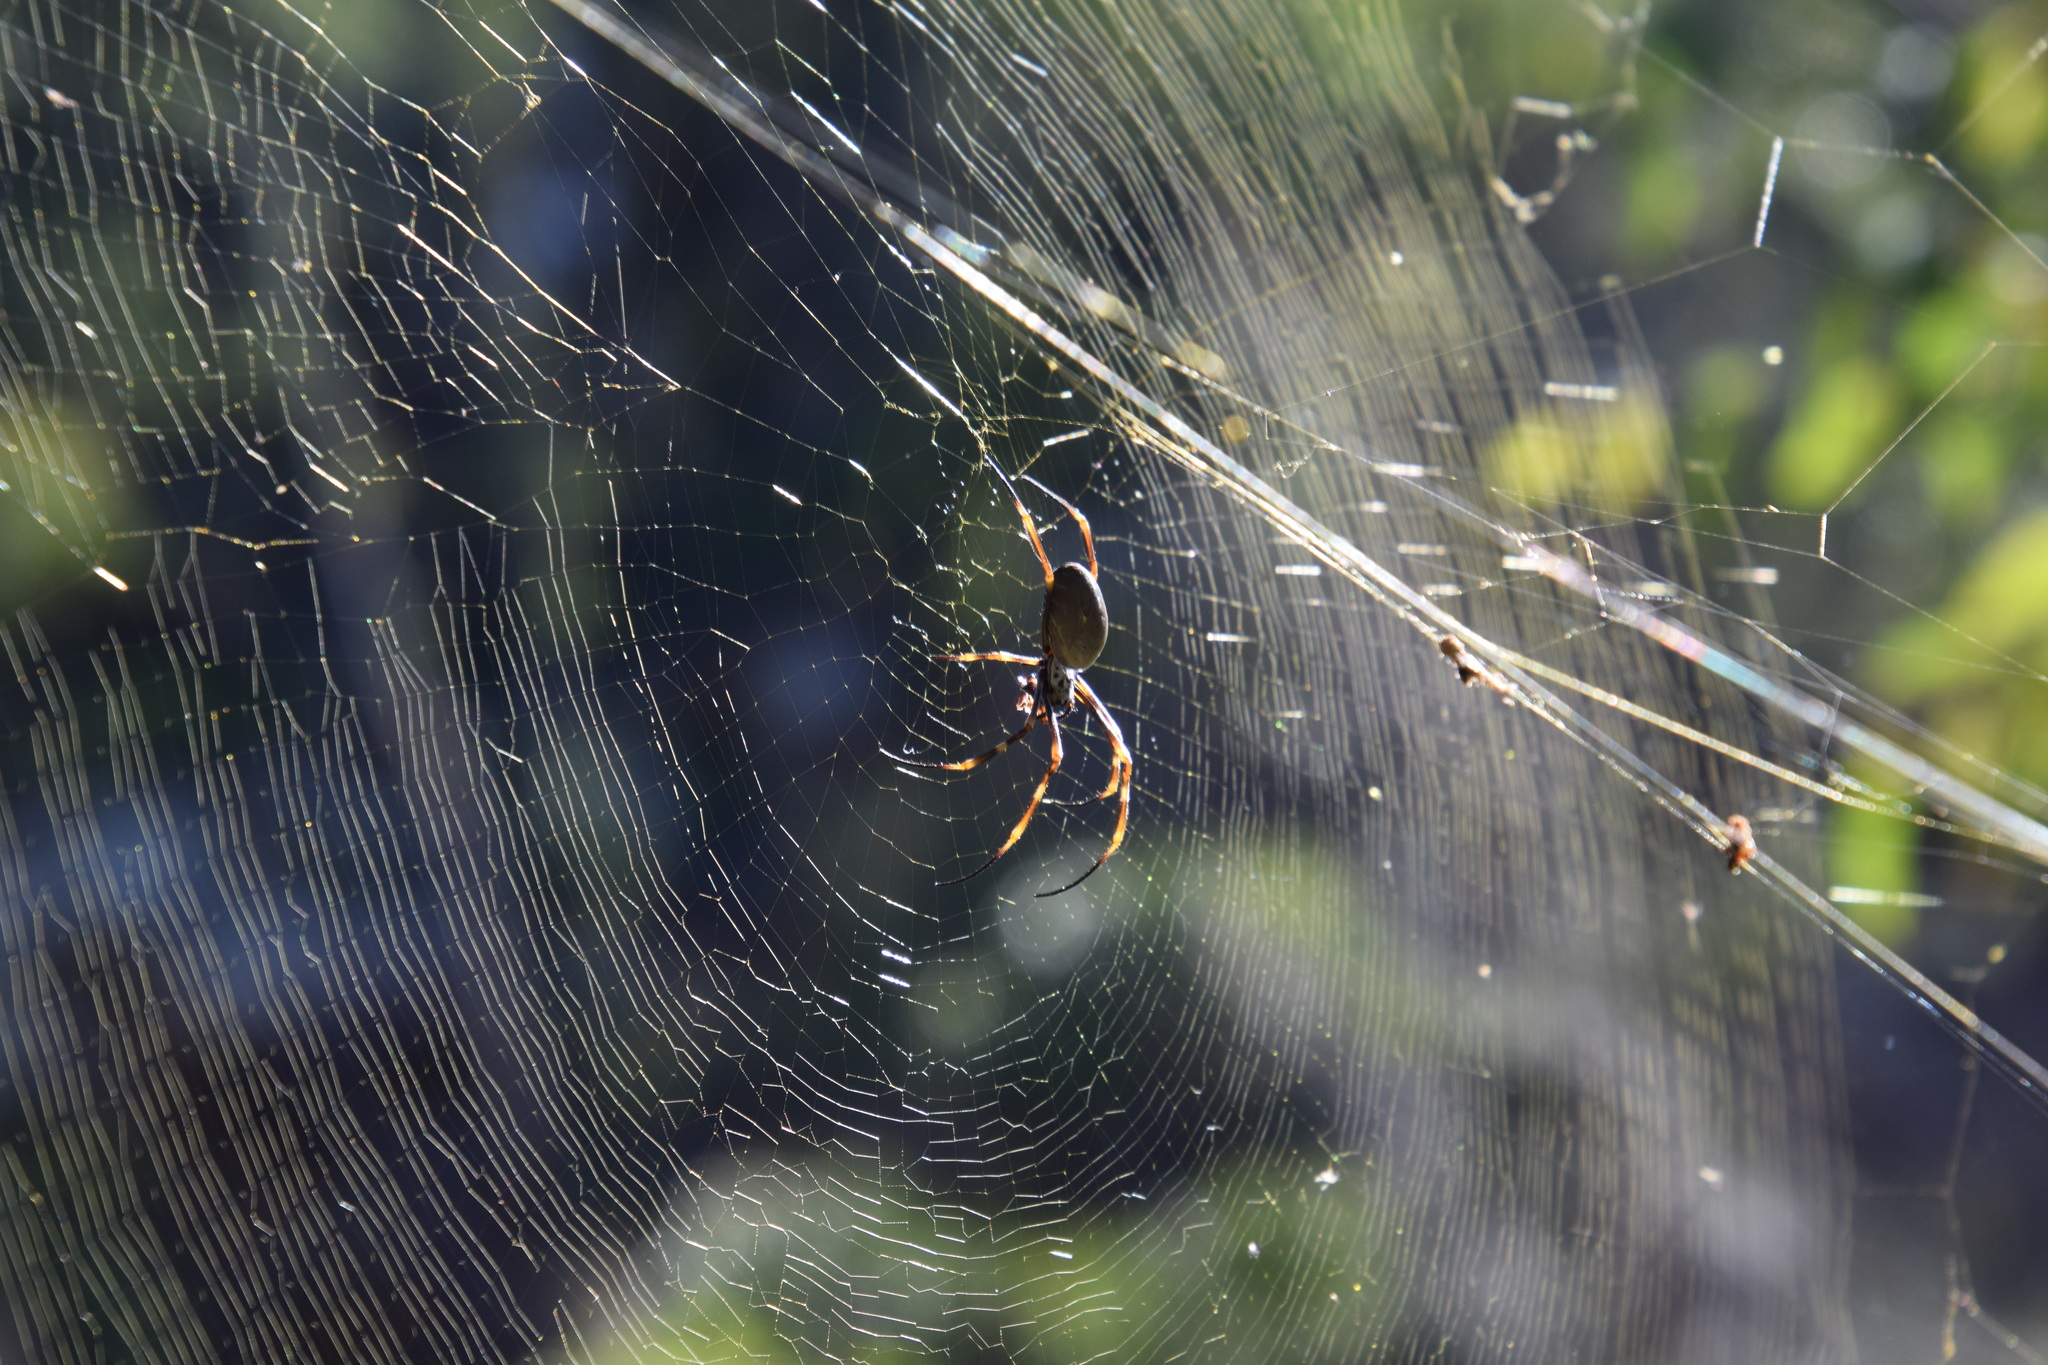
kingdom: Animalia
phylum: Arthropoda
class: Arachnida
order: Araneae
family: Araneidae
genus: Trichonephila
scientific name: Trichonephila plumipes
